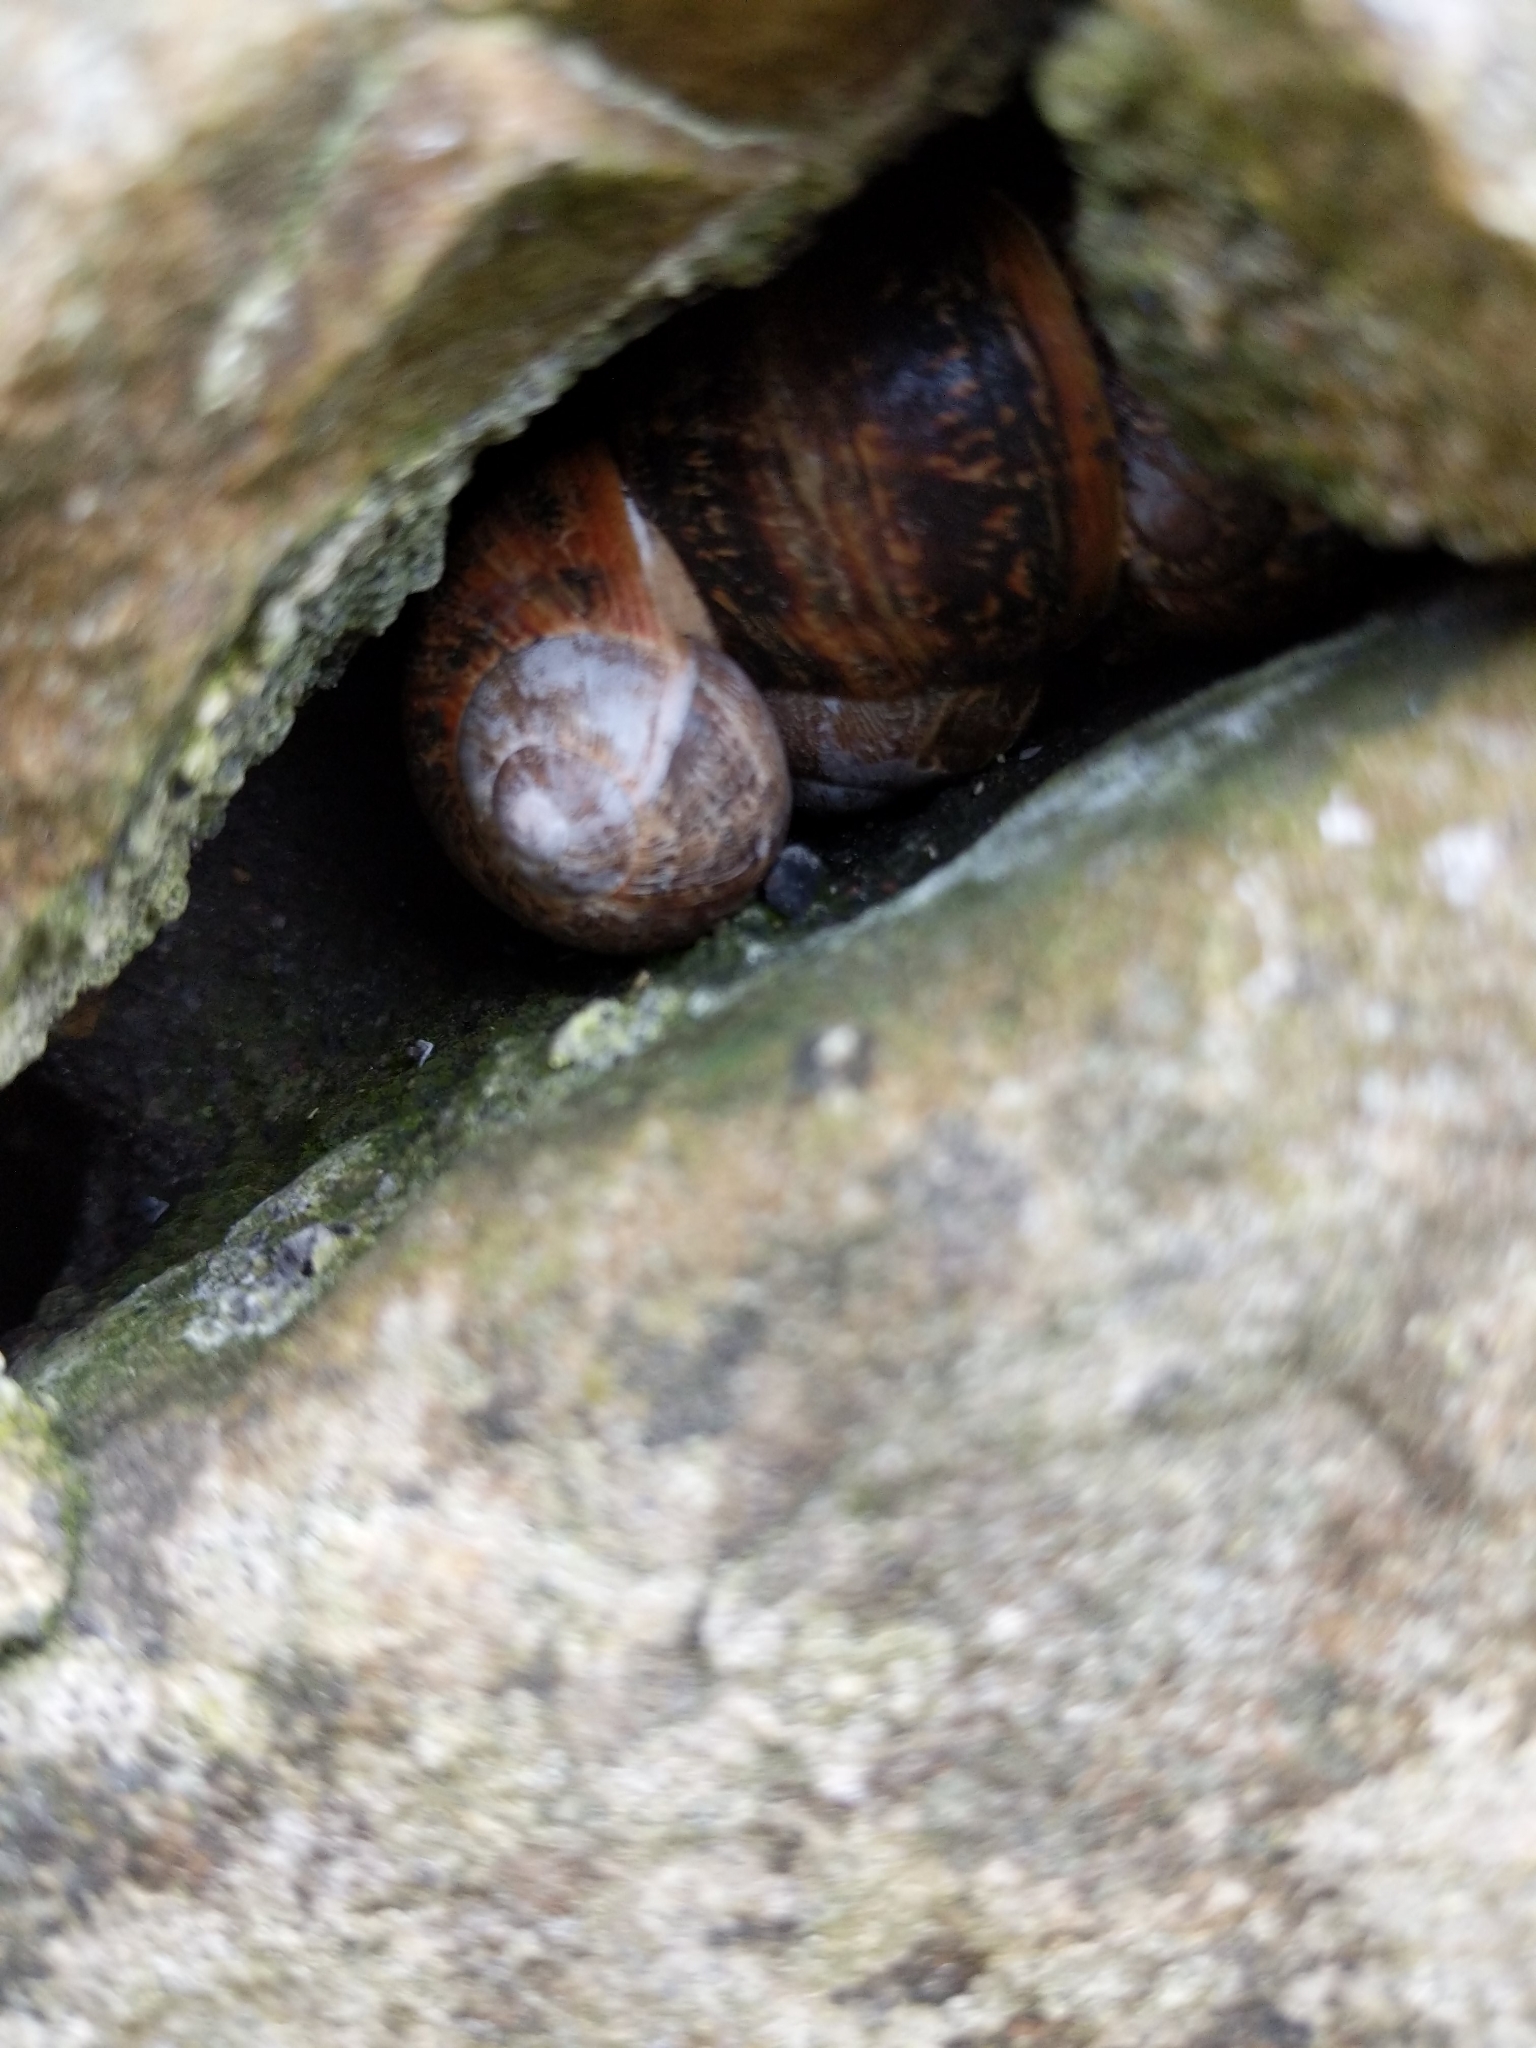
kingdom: Animalia
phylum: Mollusca
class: Gastropoda
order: Stylommatophora
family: Helicidae
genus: Cornu
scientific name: Cornu aspersum
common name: Brown garden snail
